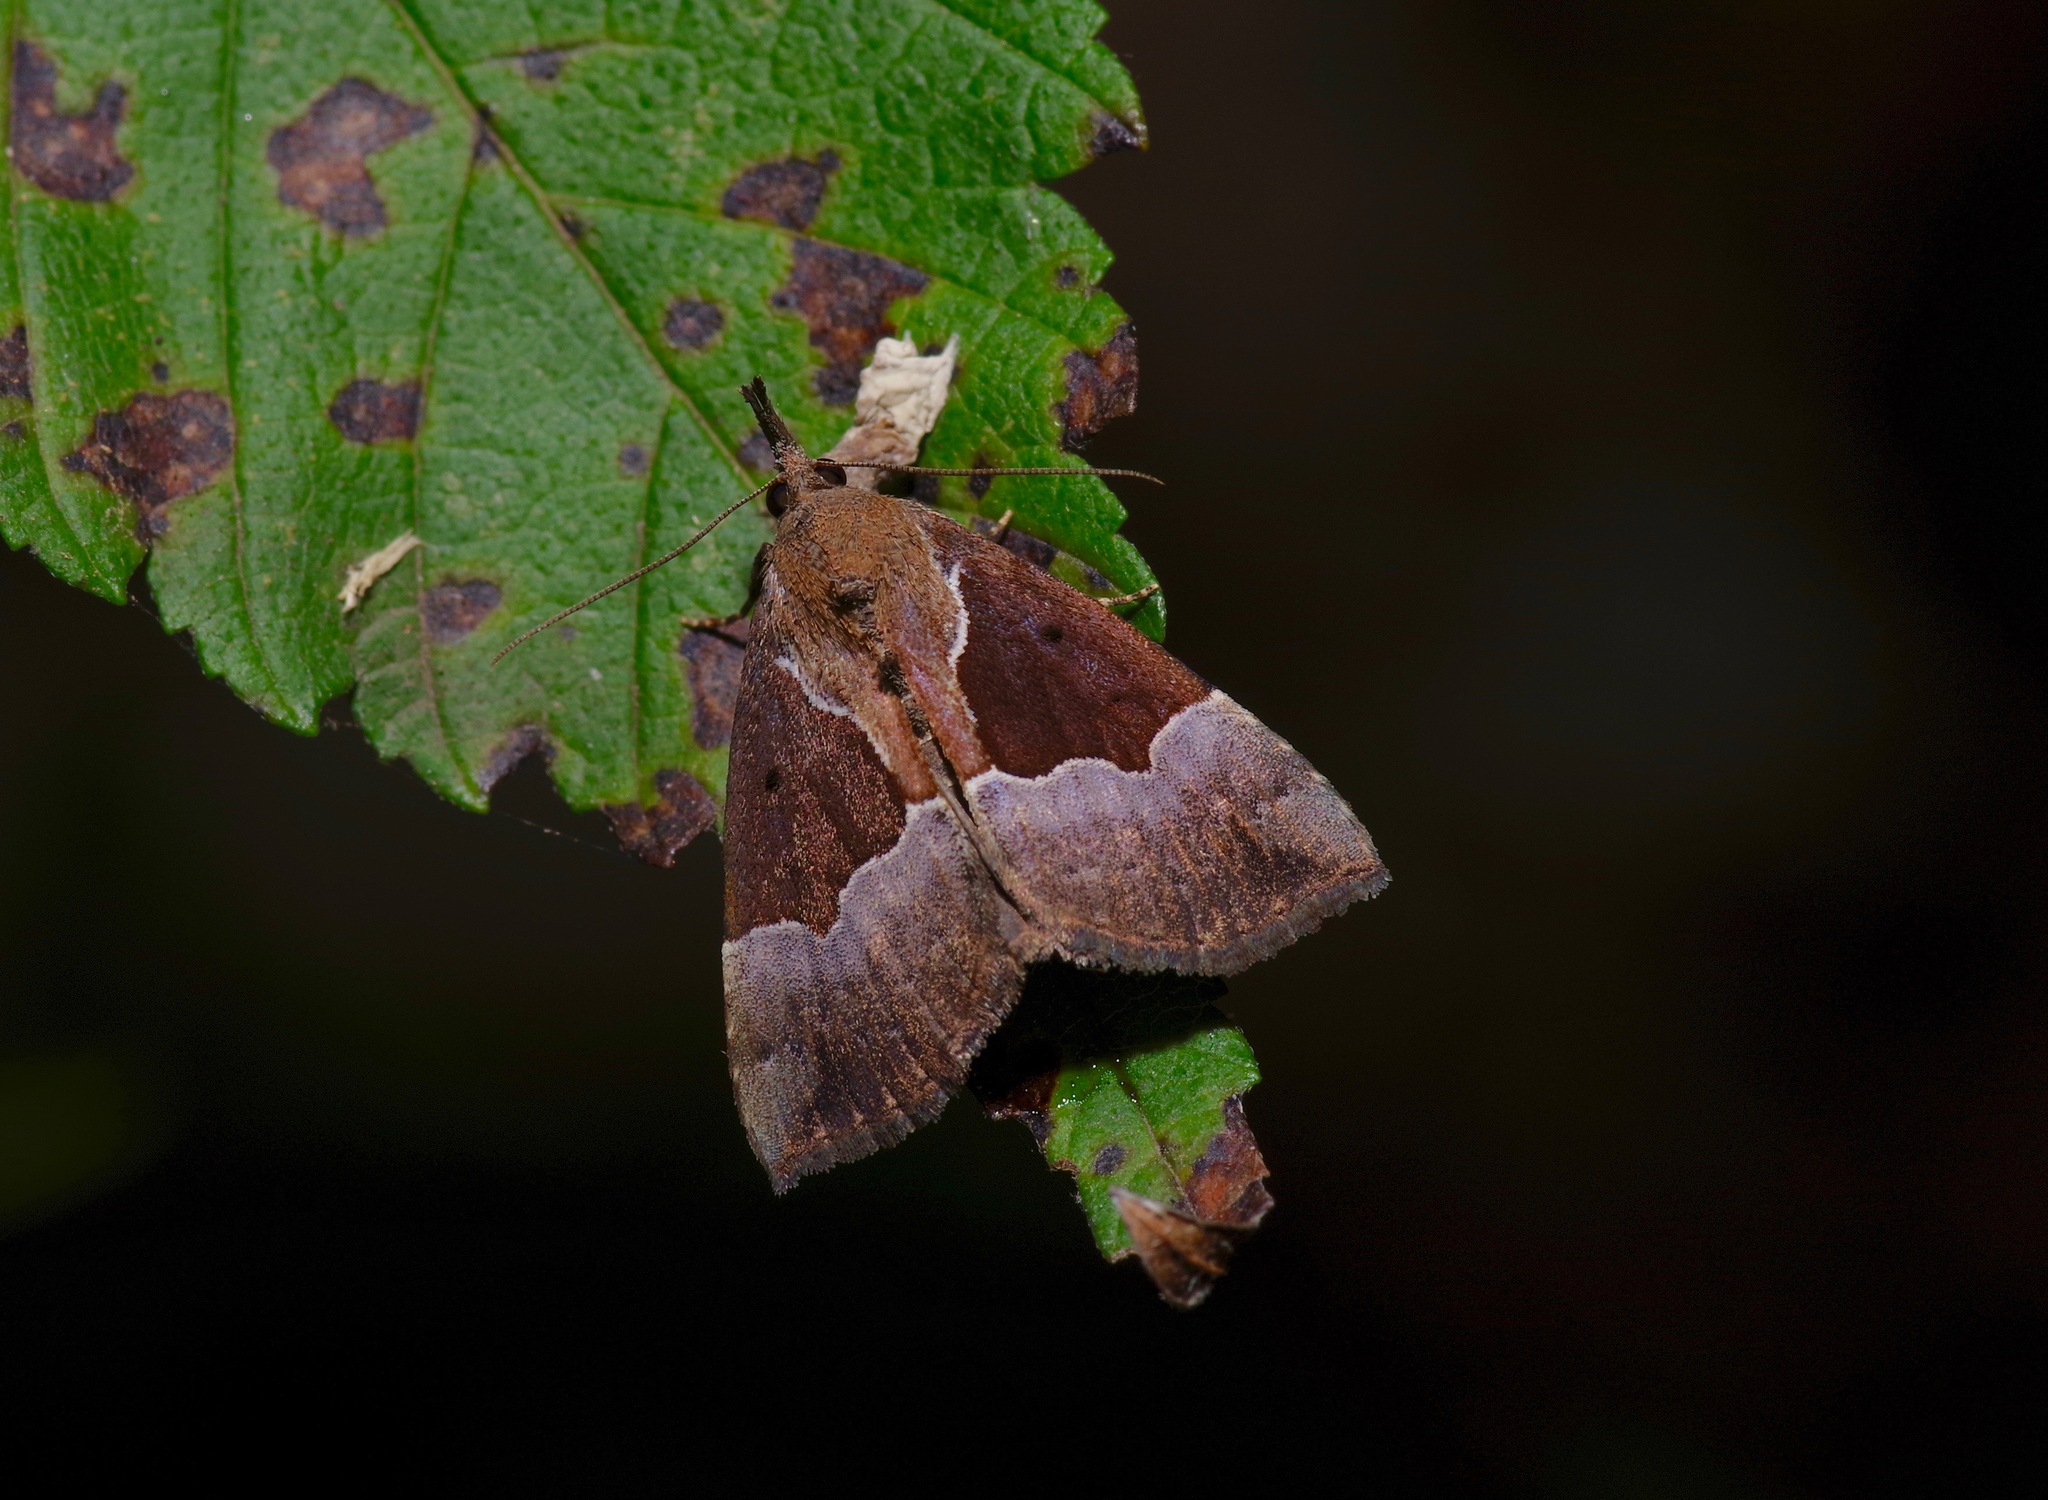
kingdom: Animalia
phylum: Arthropoda
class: Insecta
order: Lepidoptera
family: Erebidae
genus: Hypena
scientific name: Hypena bijugalis
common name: Dimorphic bomolocha moth
